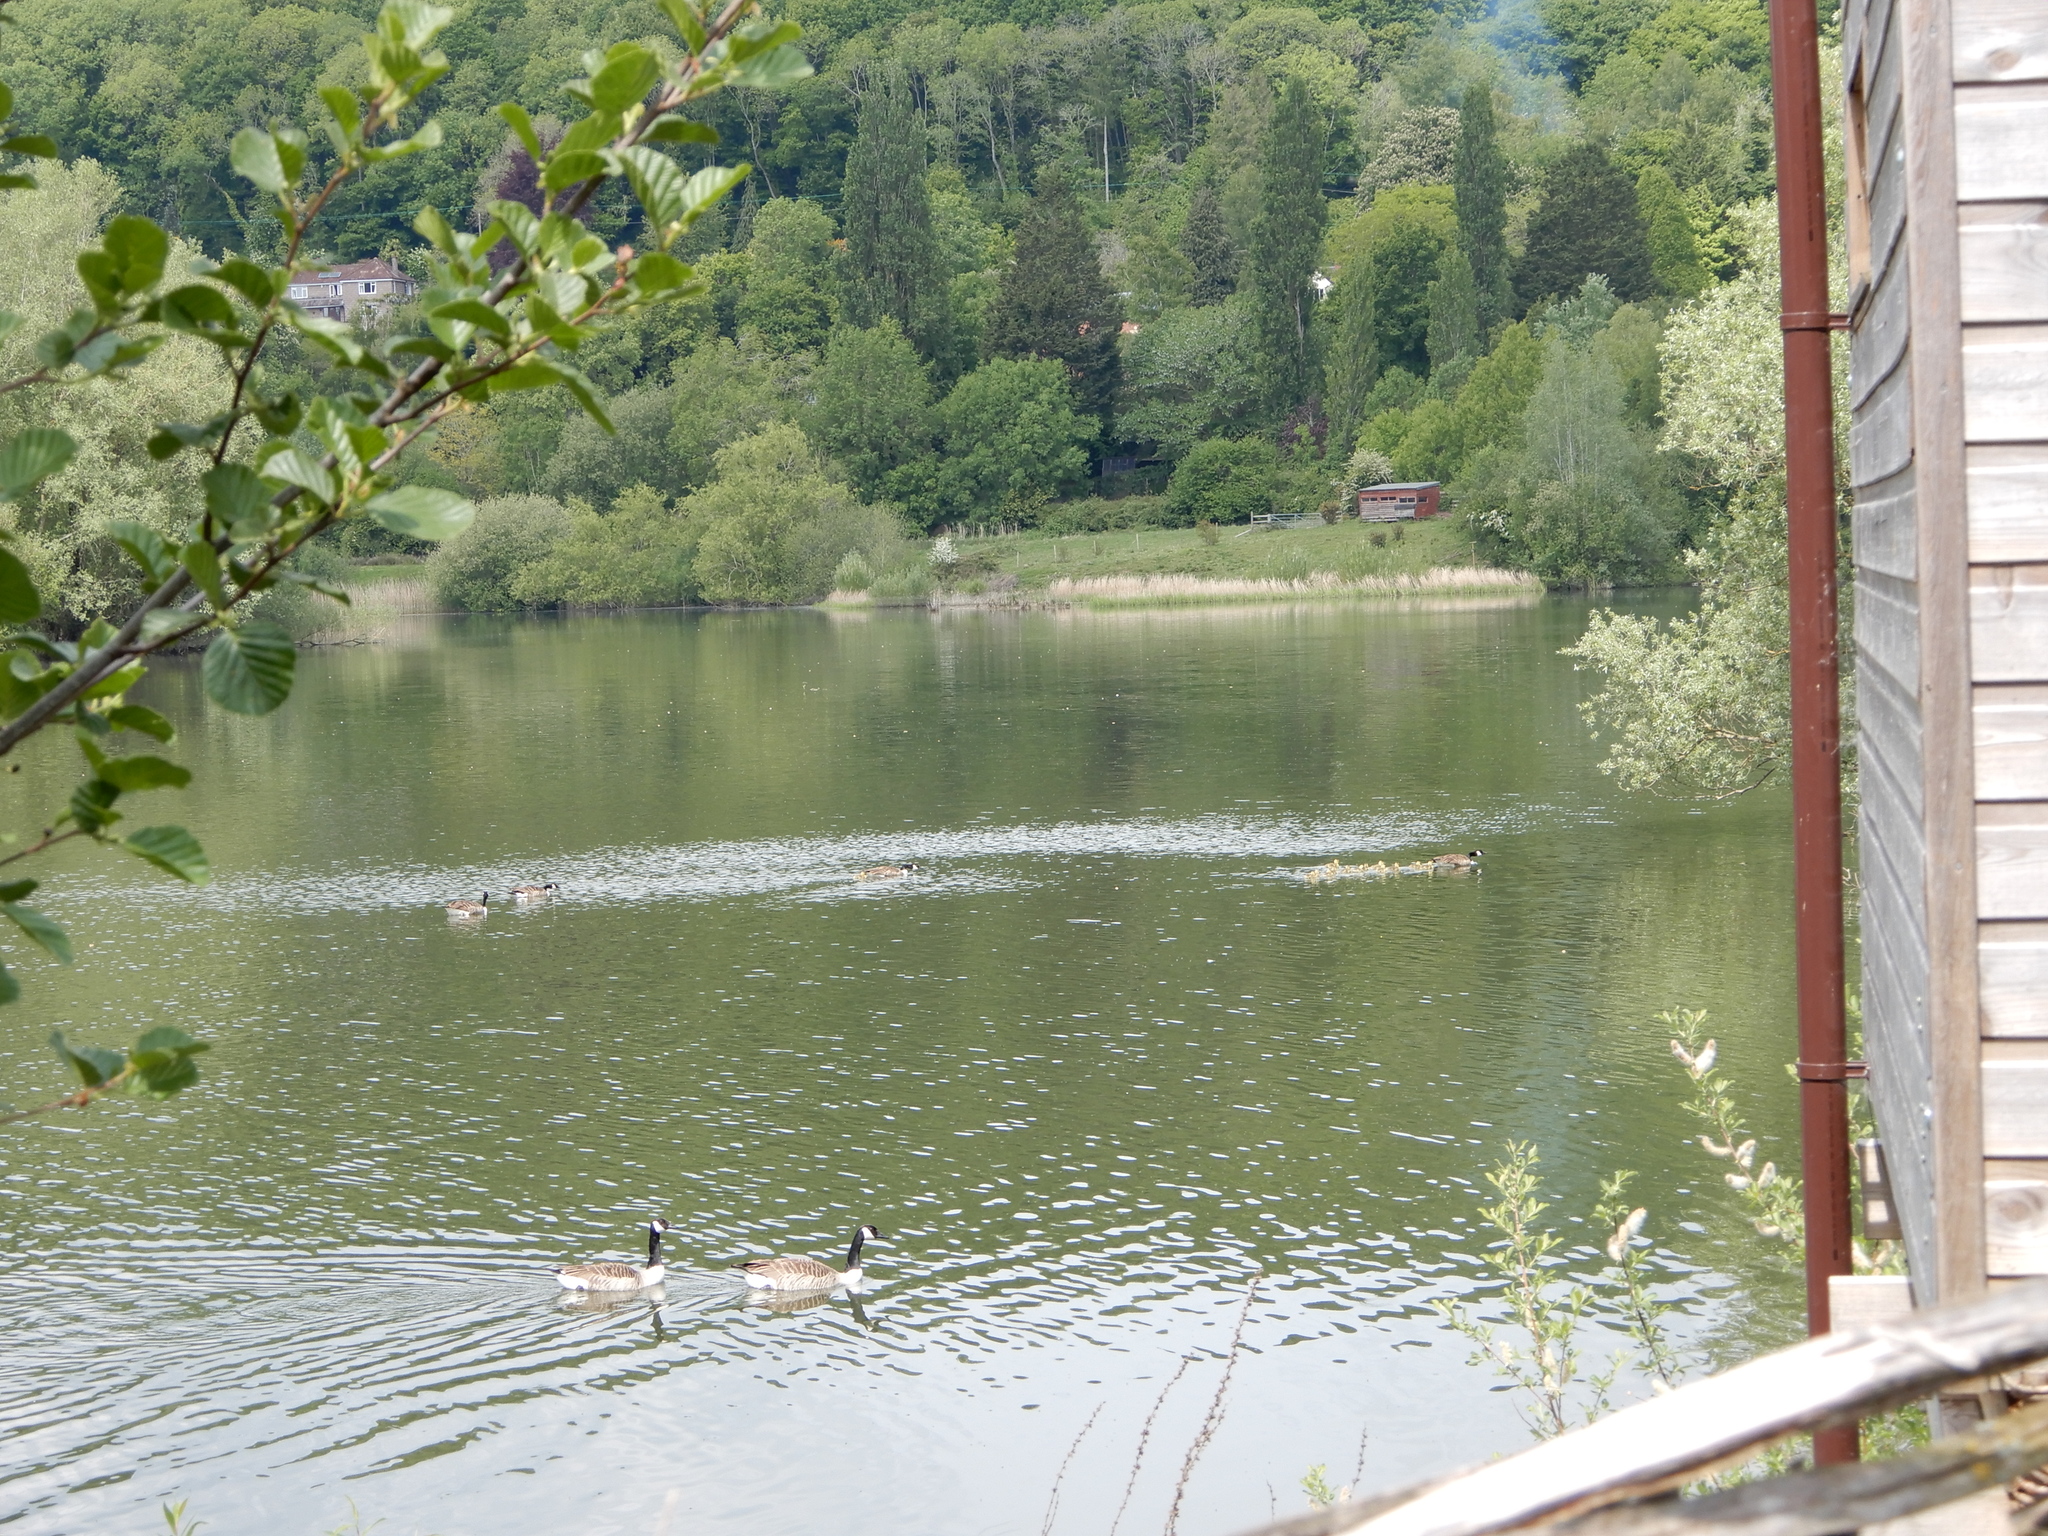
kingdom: Animalia
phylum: Chordata
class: Aves
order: Anseriformes
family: Anatidae
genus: Branta
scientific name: Branta canadensis
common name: Canada goose
